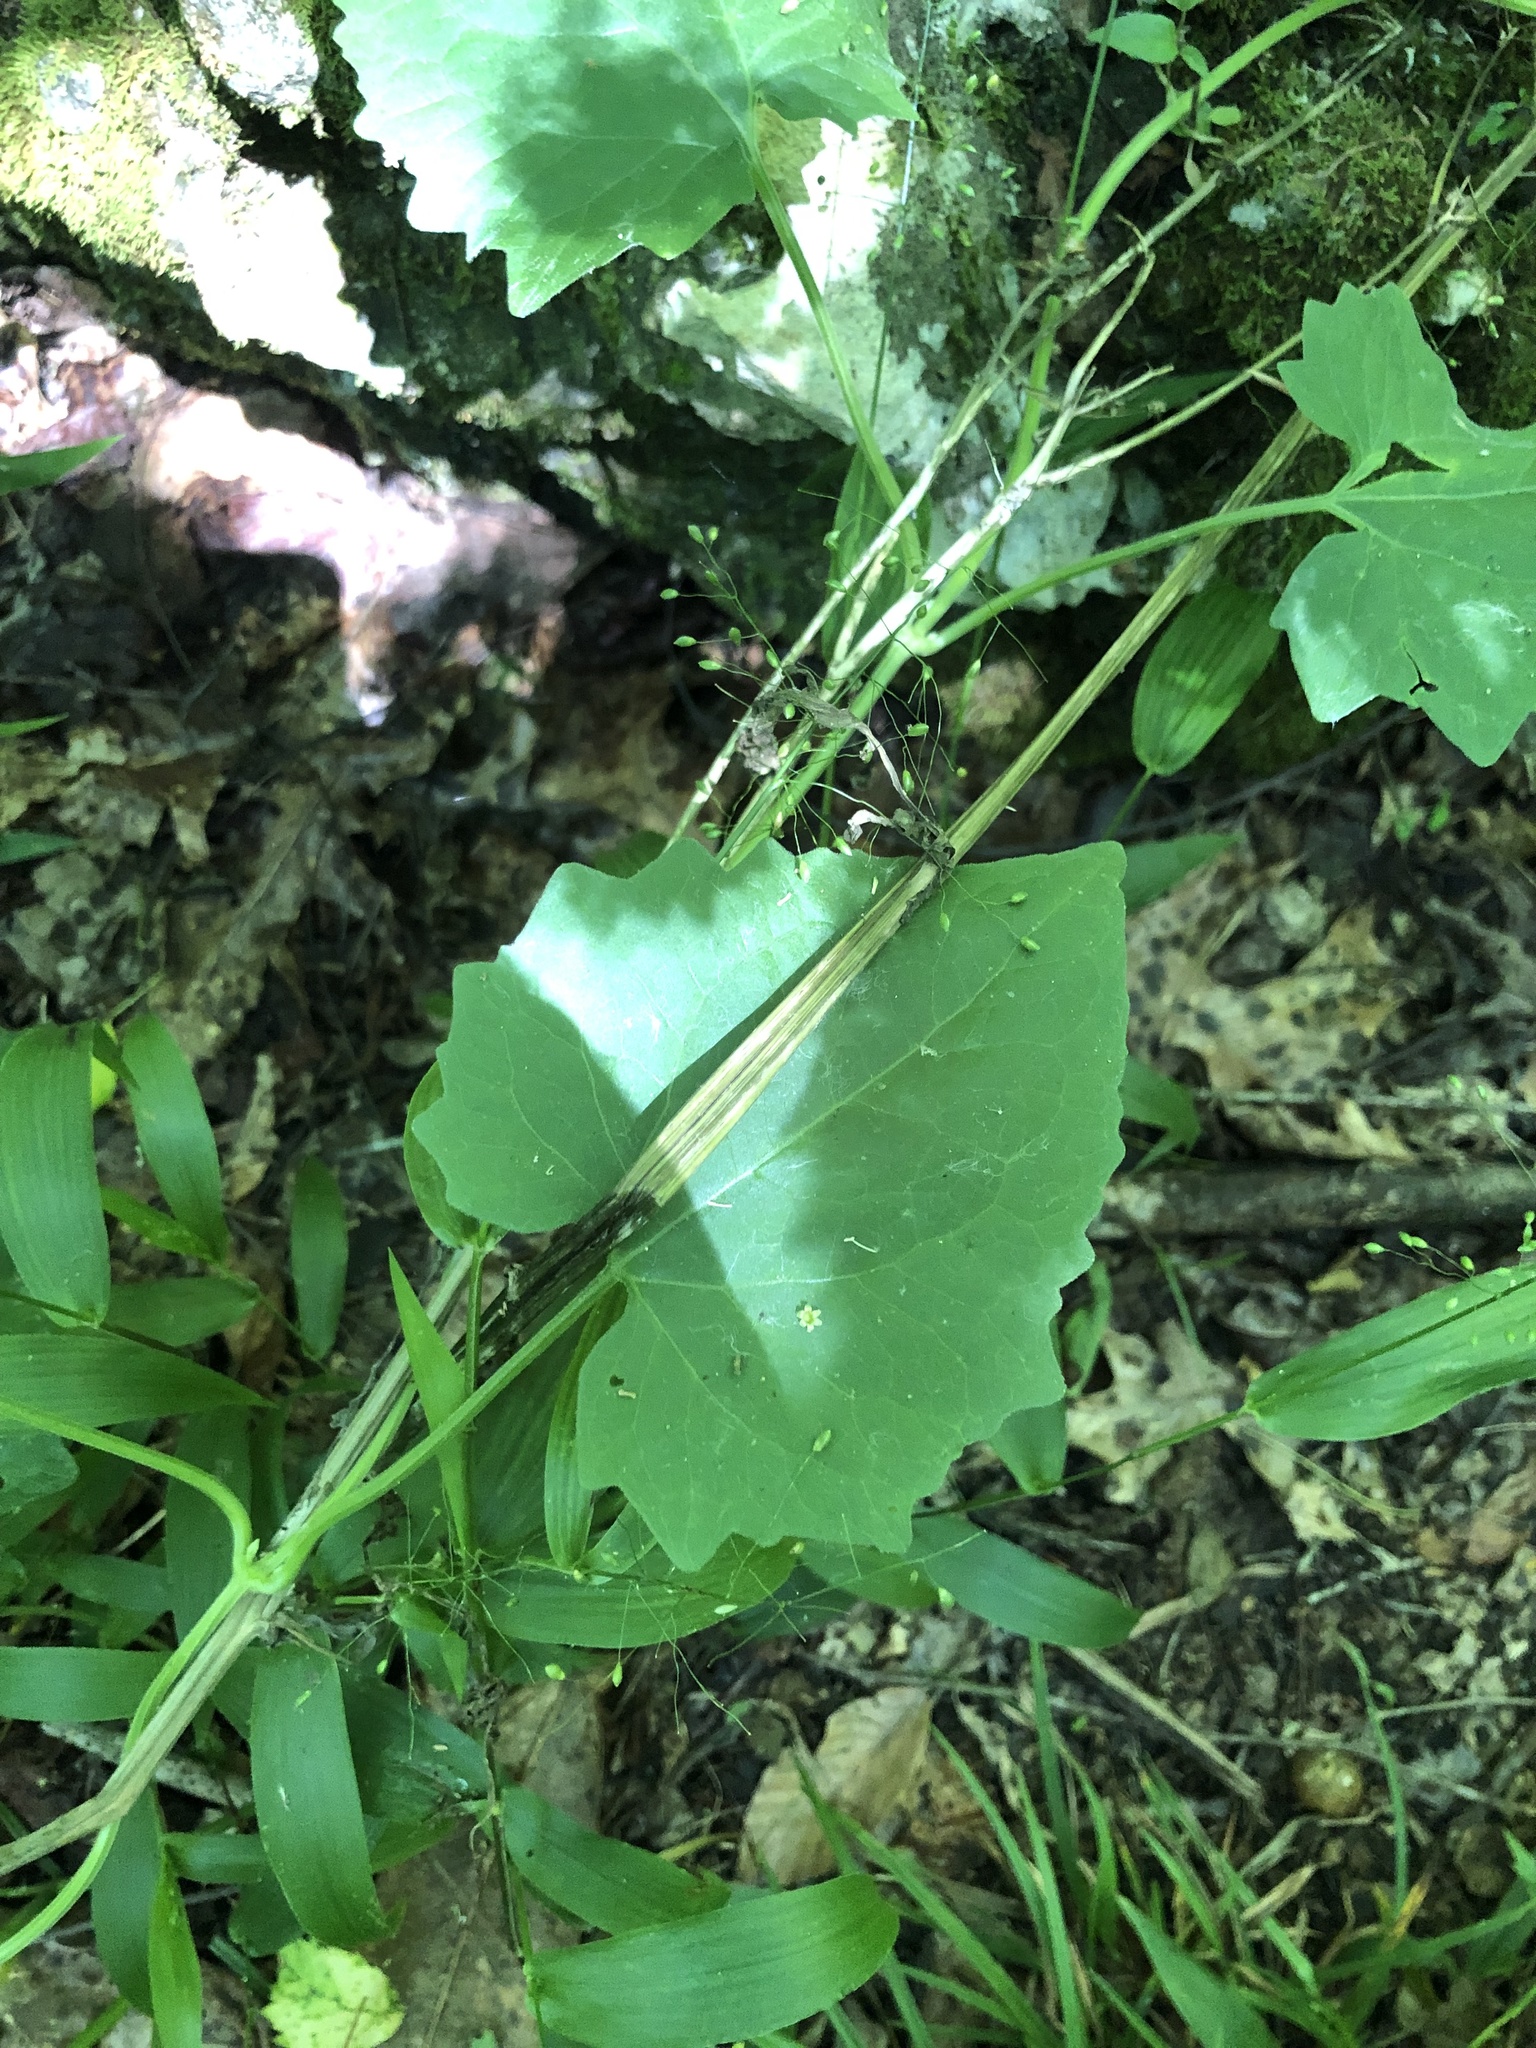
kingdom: Plantae
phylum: Tracheophyta
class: Magnoliopsida
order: Asterales
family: Asteraceae
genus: Mikania
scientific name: Mikania cordifolia
